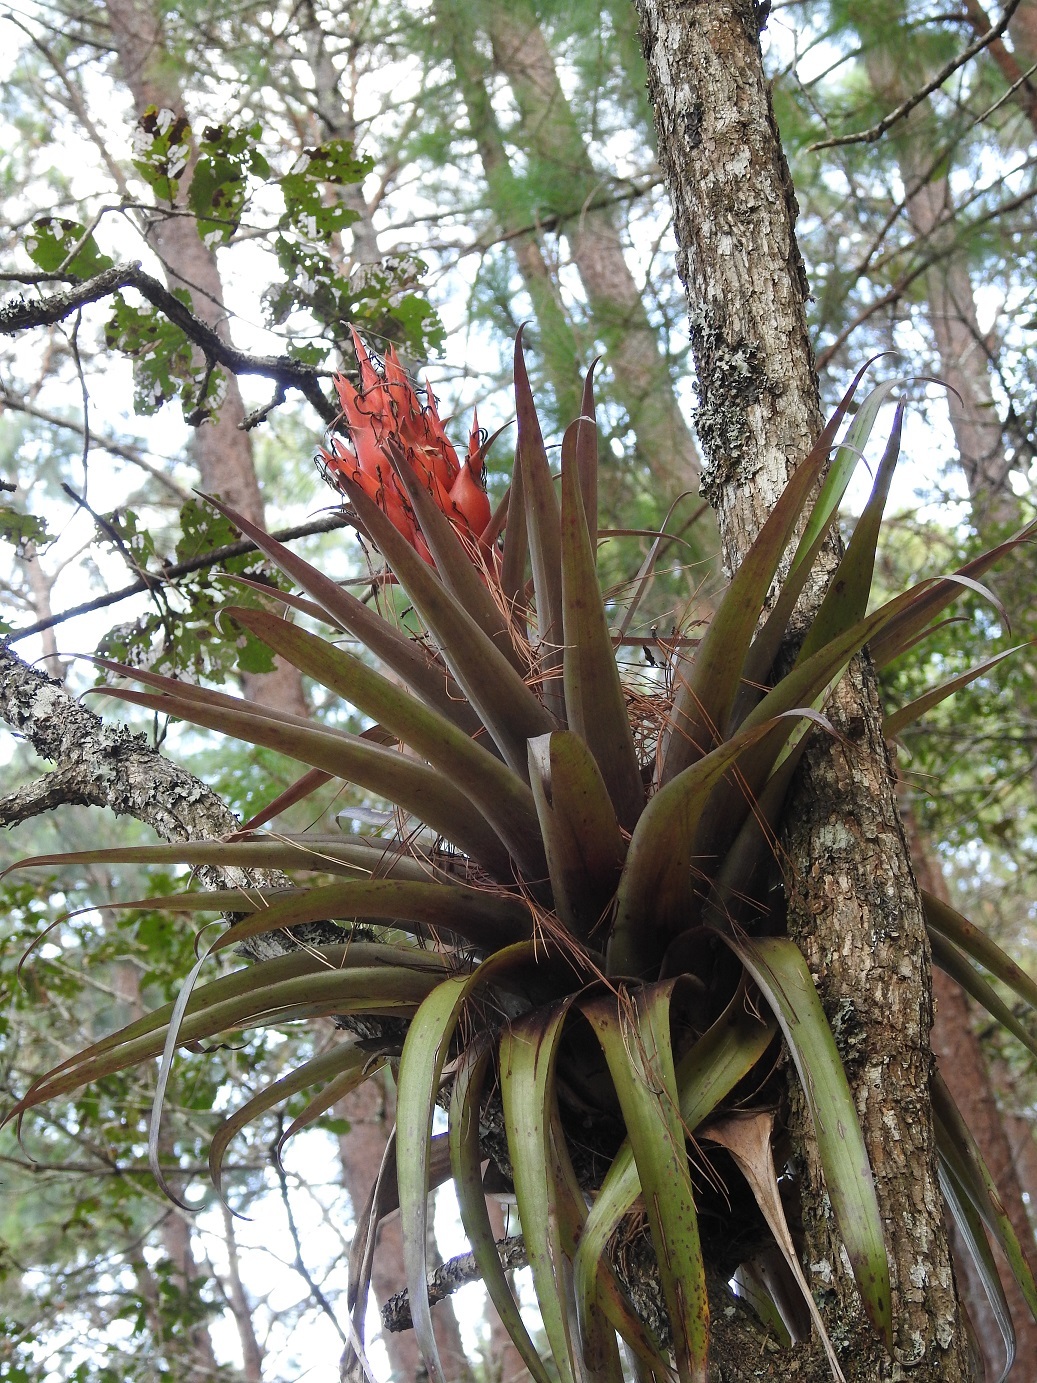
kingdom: Plantae
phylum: Tracheophyta
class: Liliopsida
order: Poales
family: Bromeliaceae
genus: Tillandsia
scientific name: Tillandsia ponderosa
